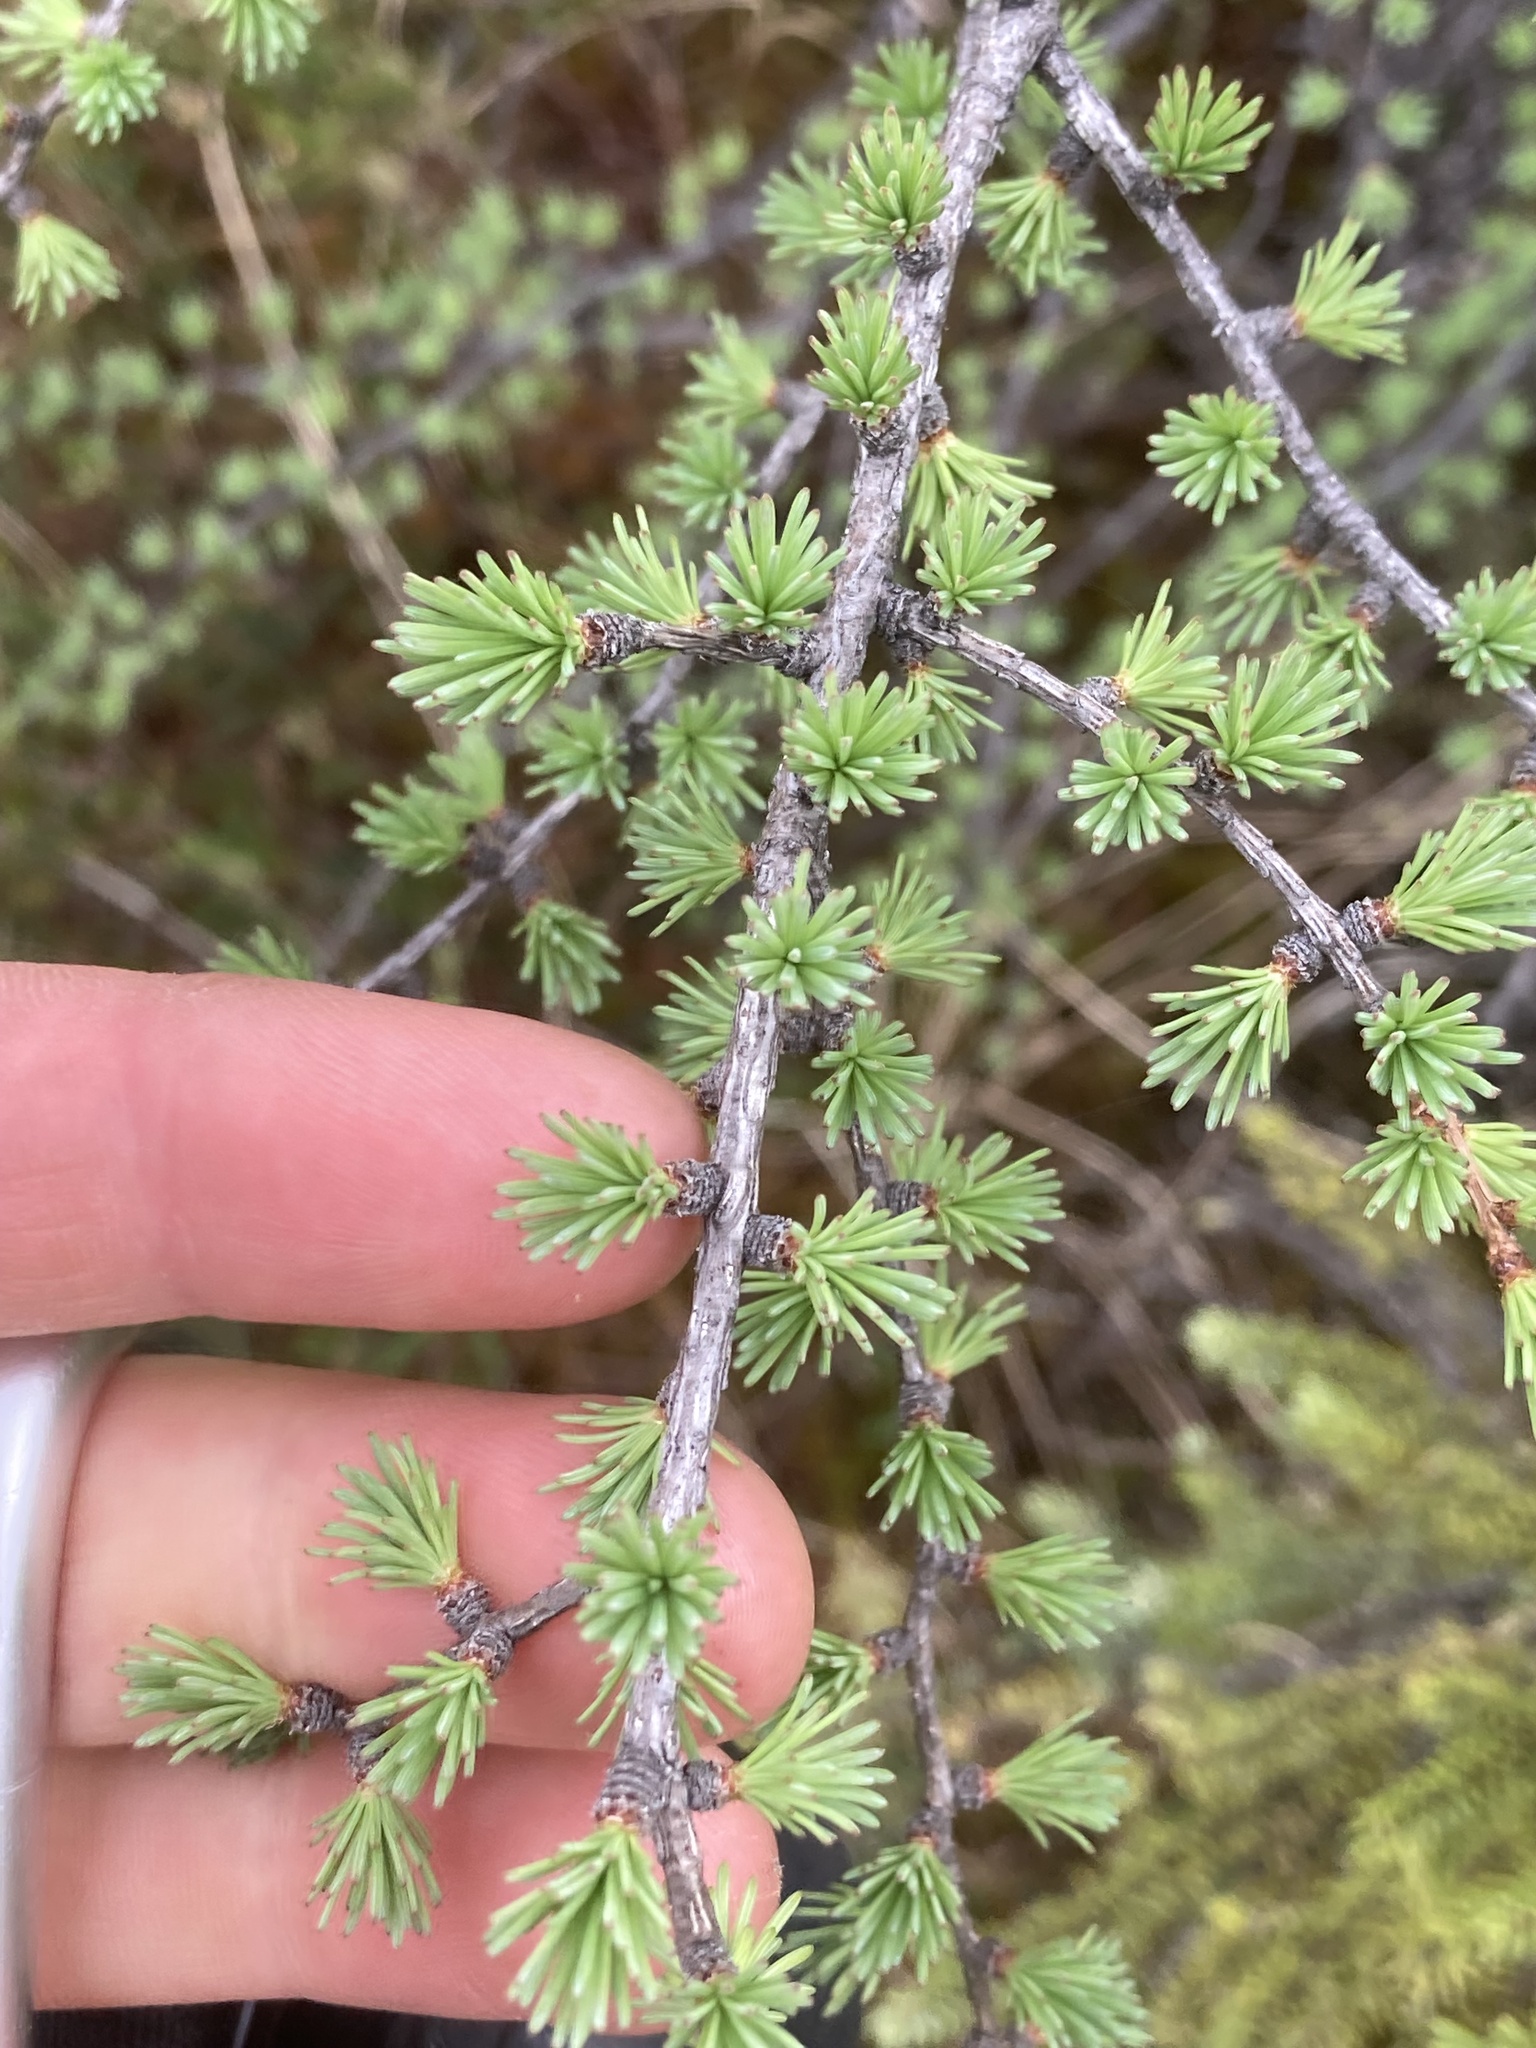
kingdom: Plantae
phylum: Tracheophyta
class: Pinopsida
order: Pinales
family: Pinaceae
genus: Larix
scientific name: Larix laricina
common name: American larch
